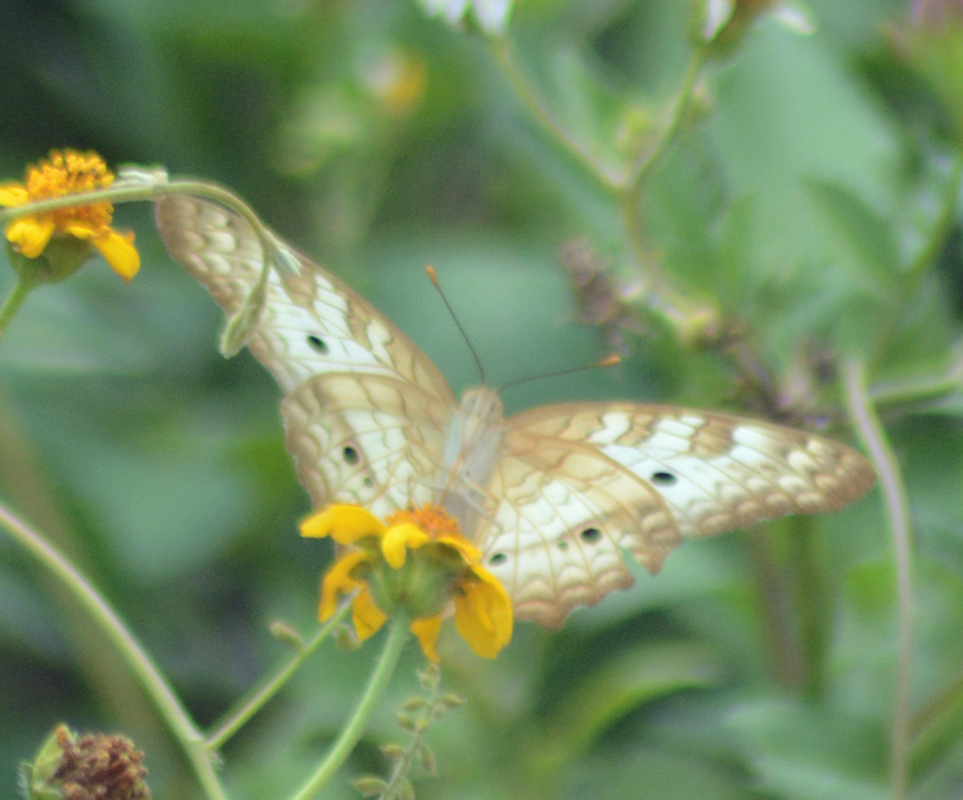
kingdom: Animalia
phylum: Arthropoda
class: Insecta
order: Lepidoptera
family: Nymphalidae
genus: Anartia
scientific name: Anartia jatrophae
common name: White peacock
